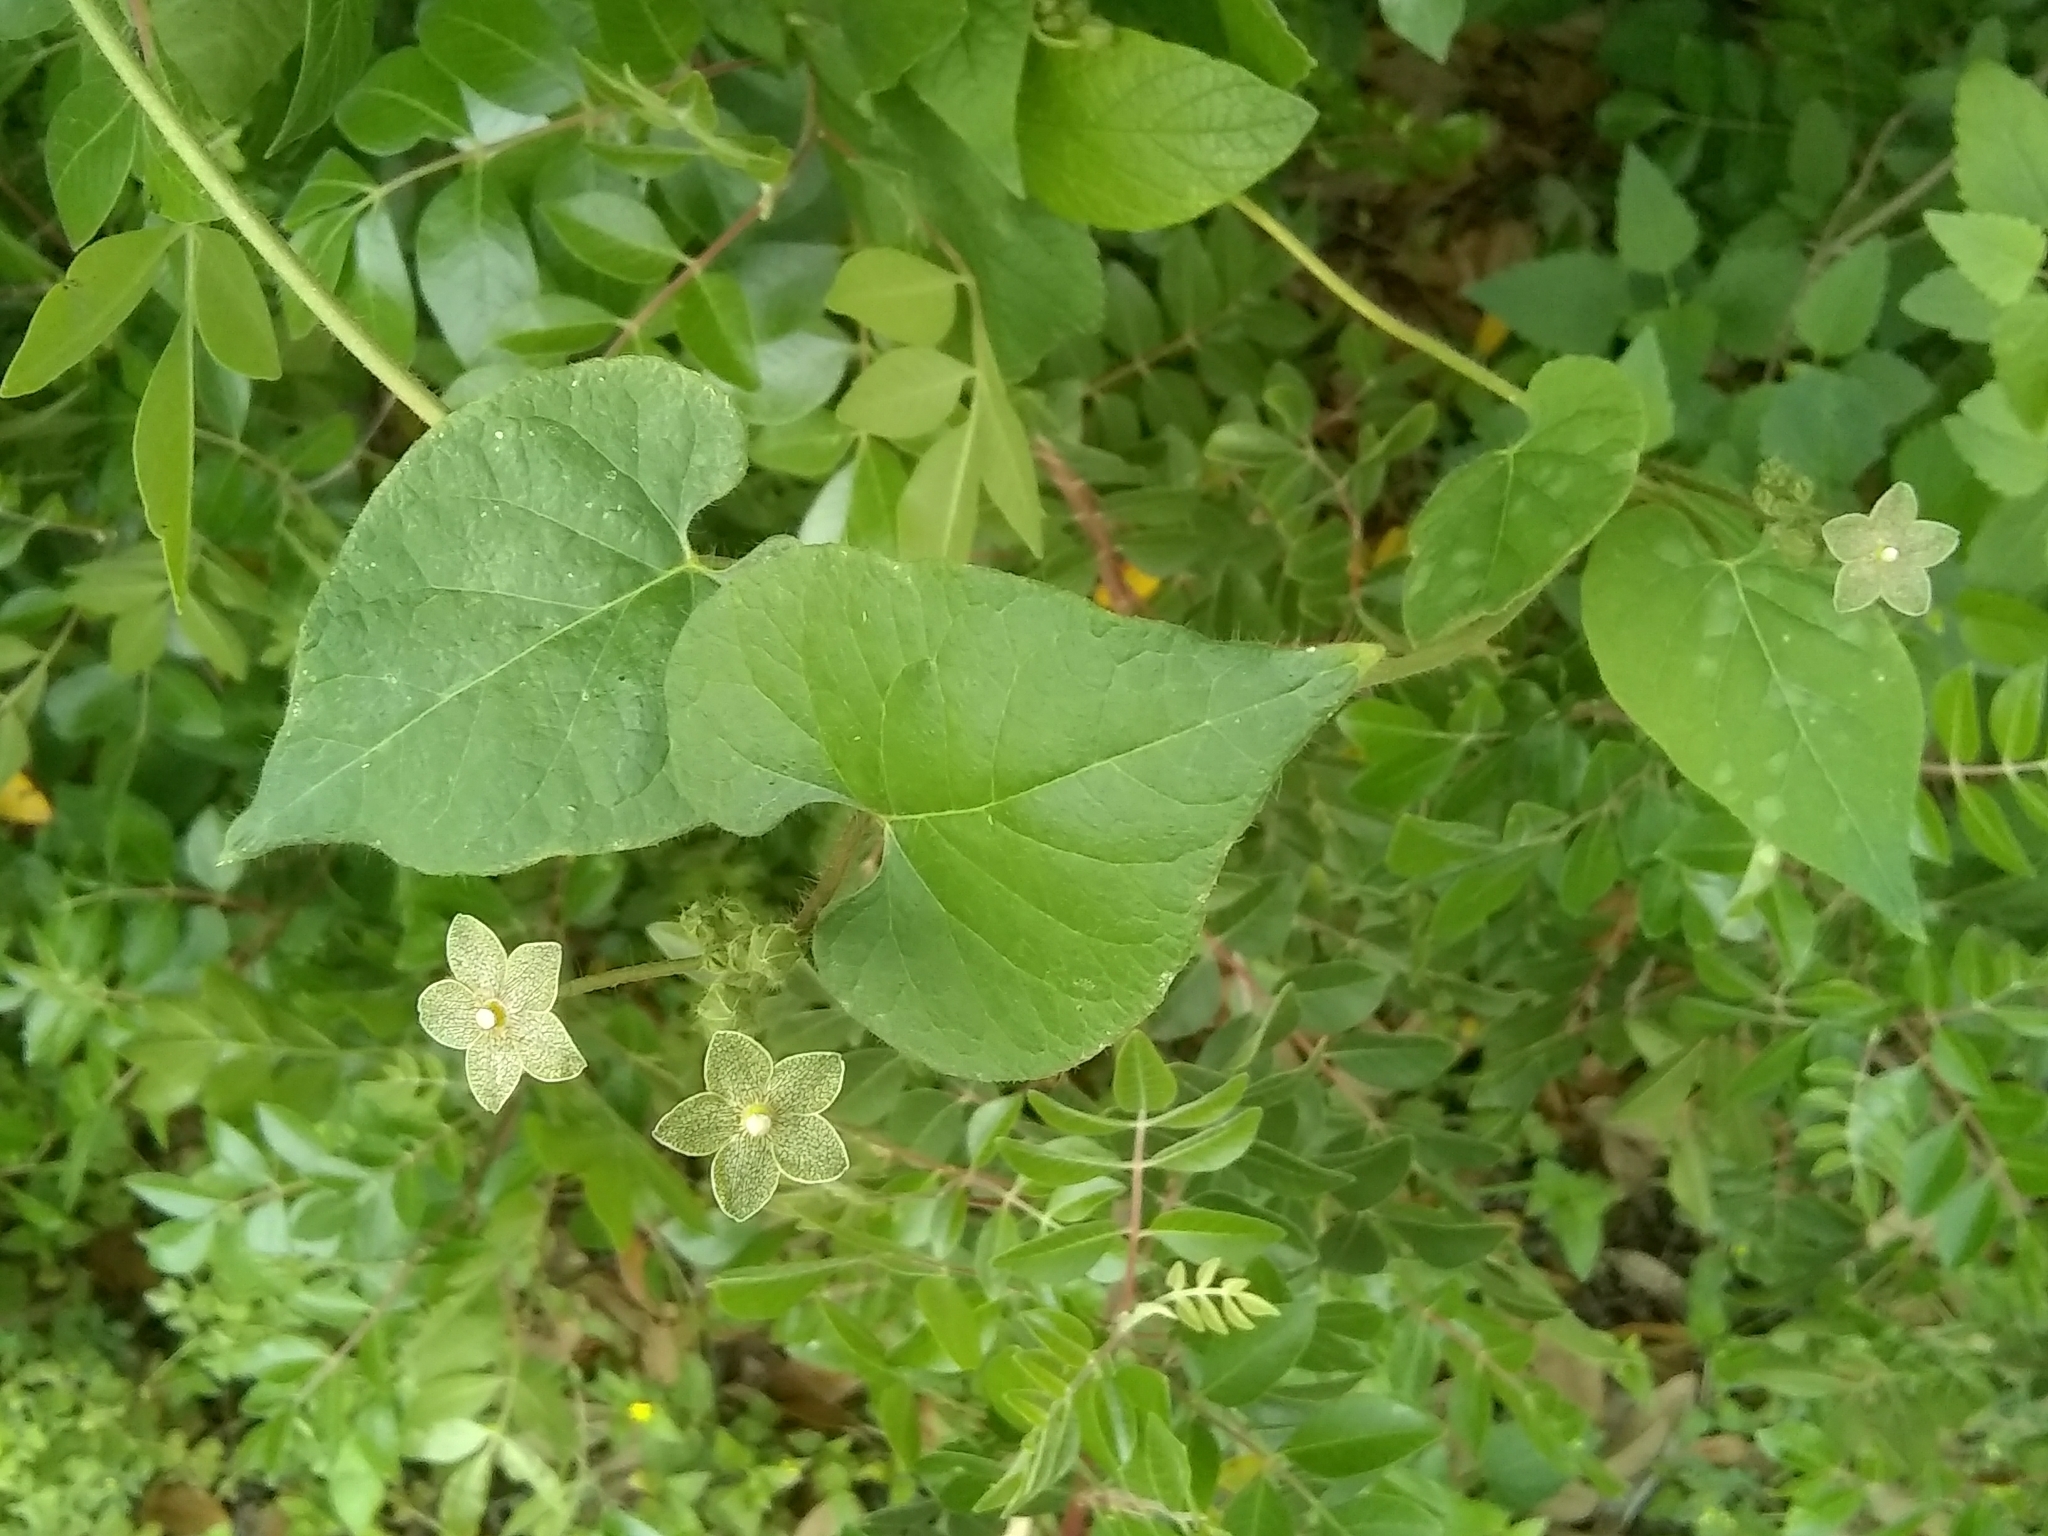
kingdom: Plantae
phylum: Tracheophyta
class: Magnoliopsida
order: Gentianales
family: Apocynaceae
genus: Dictyanthus
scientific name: Dictyanthus reticulatus
